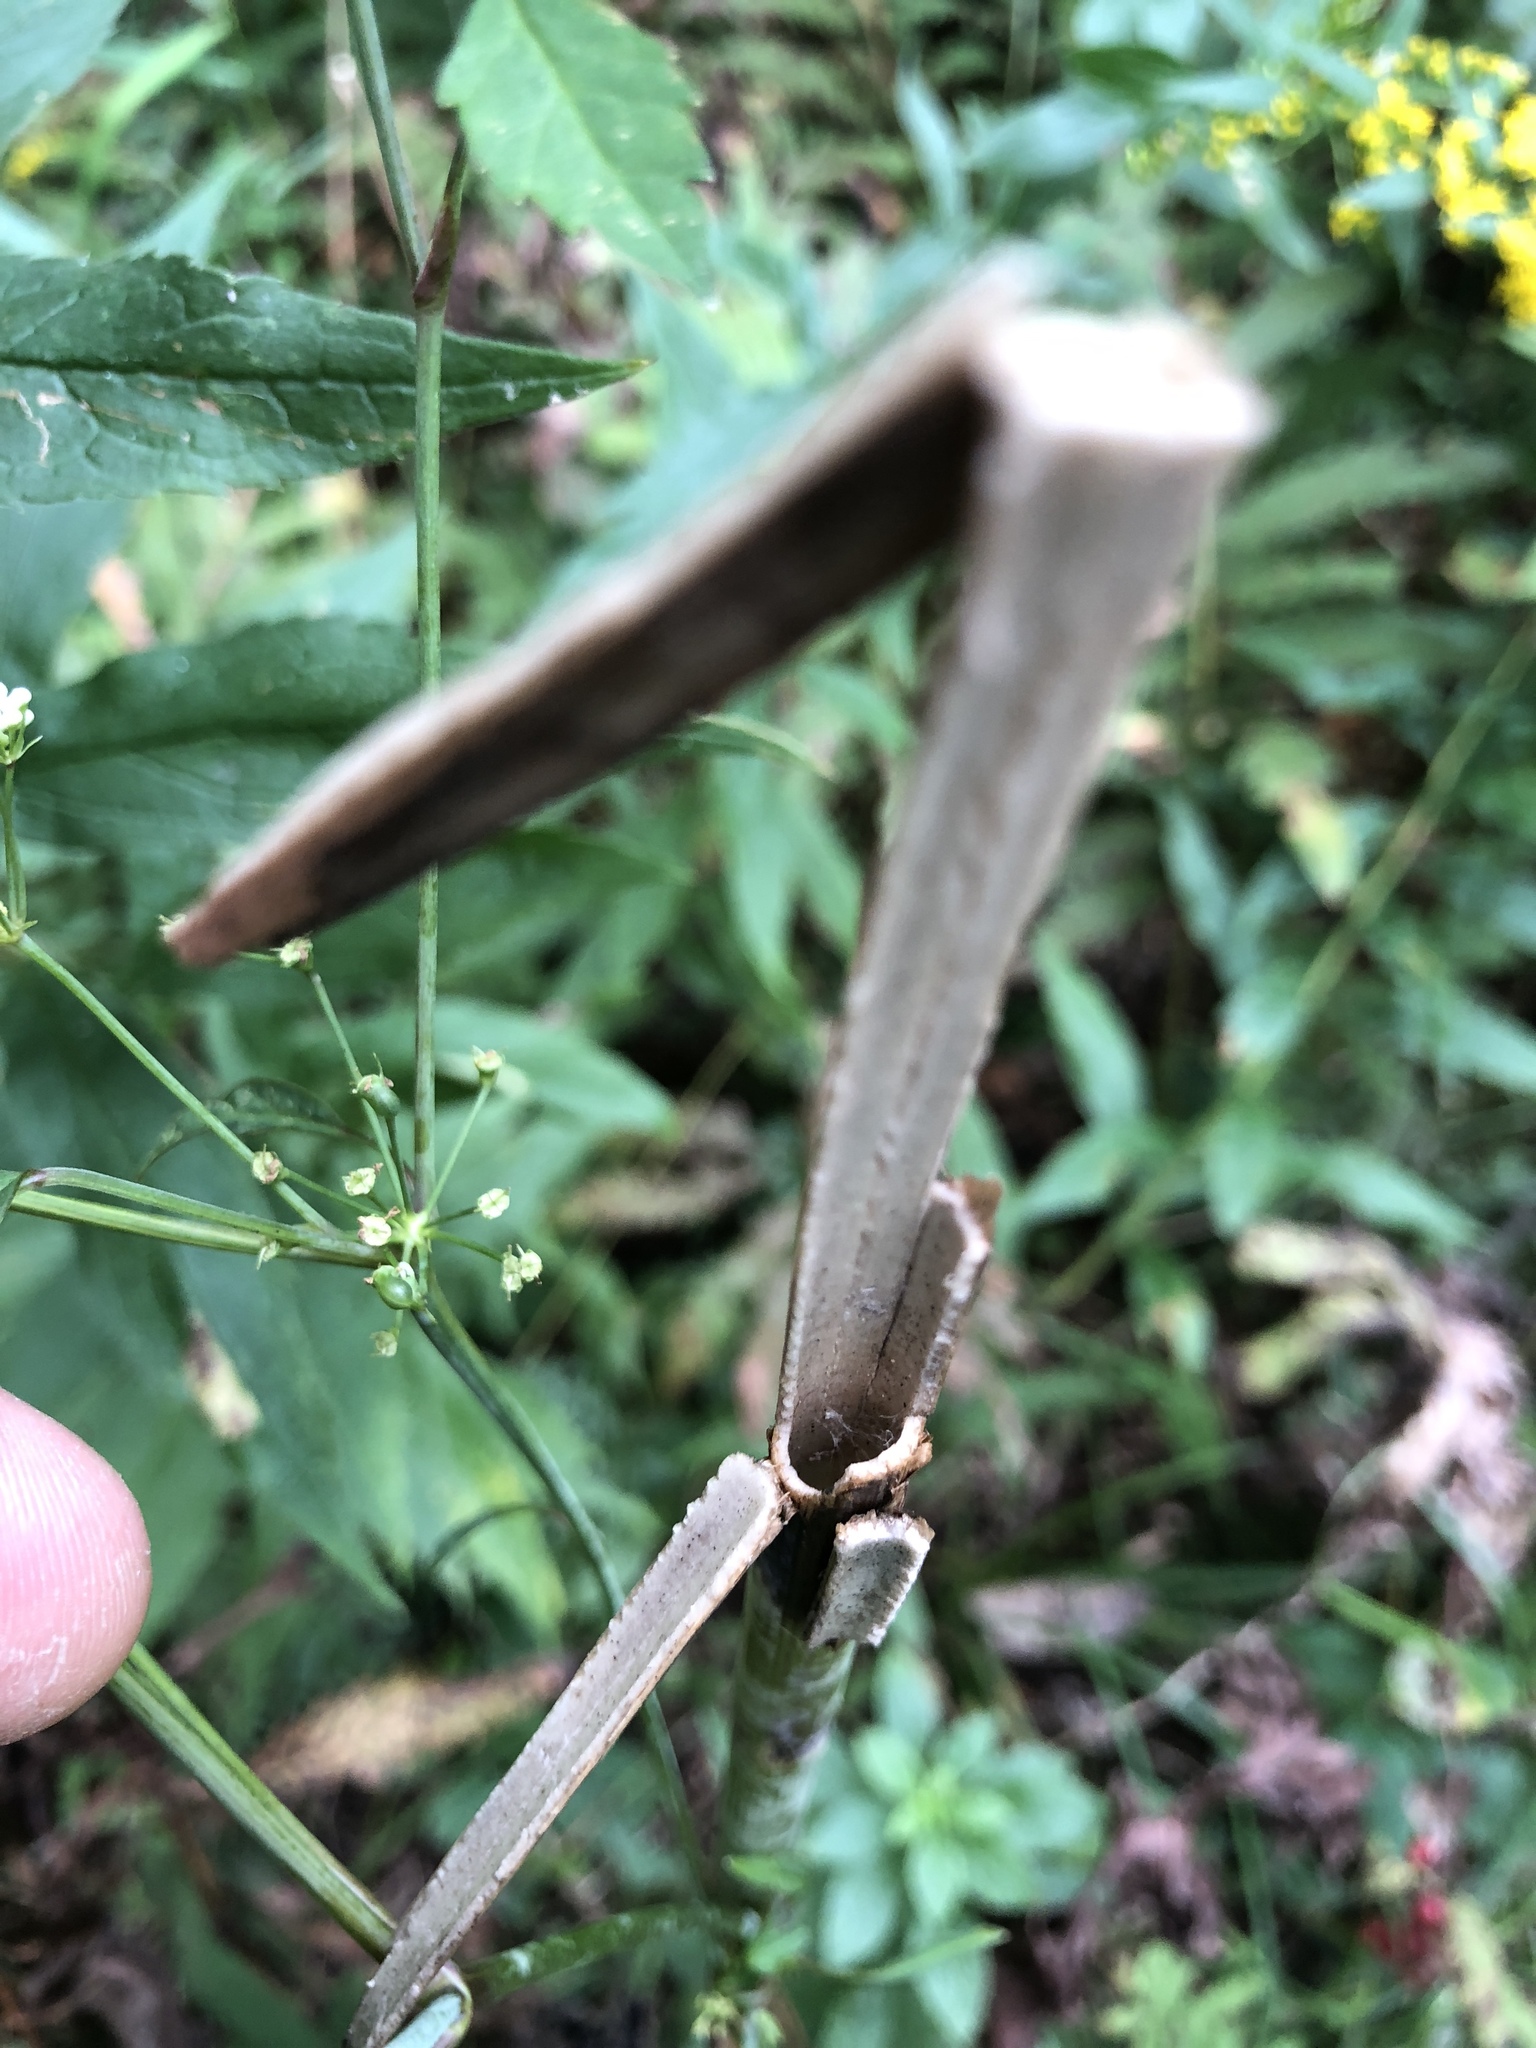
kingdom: Plantae
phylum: Tracheophyta
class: Magnoliopsida
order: Apiales
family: Apiaceae
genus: Cicuta
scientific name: Cicuta maculata
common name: Spotted cowbane
